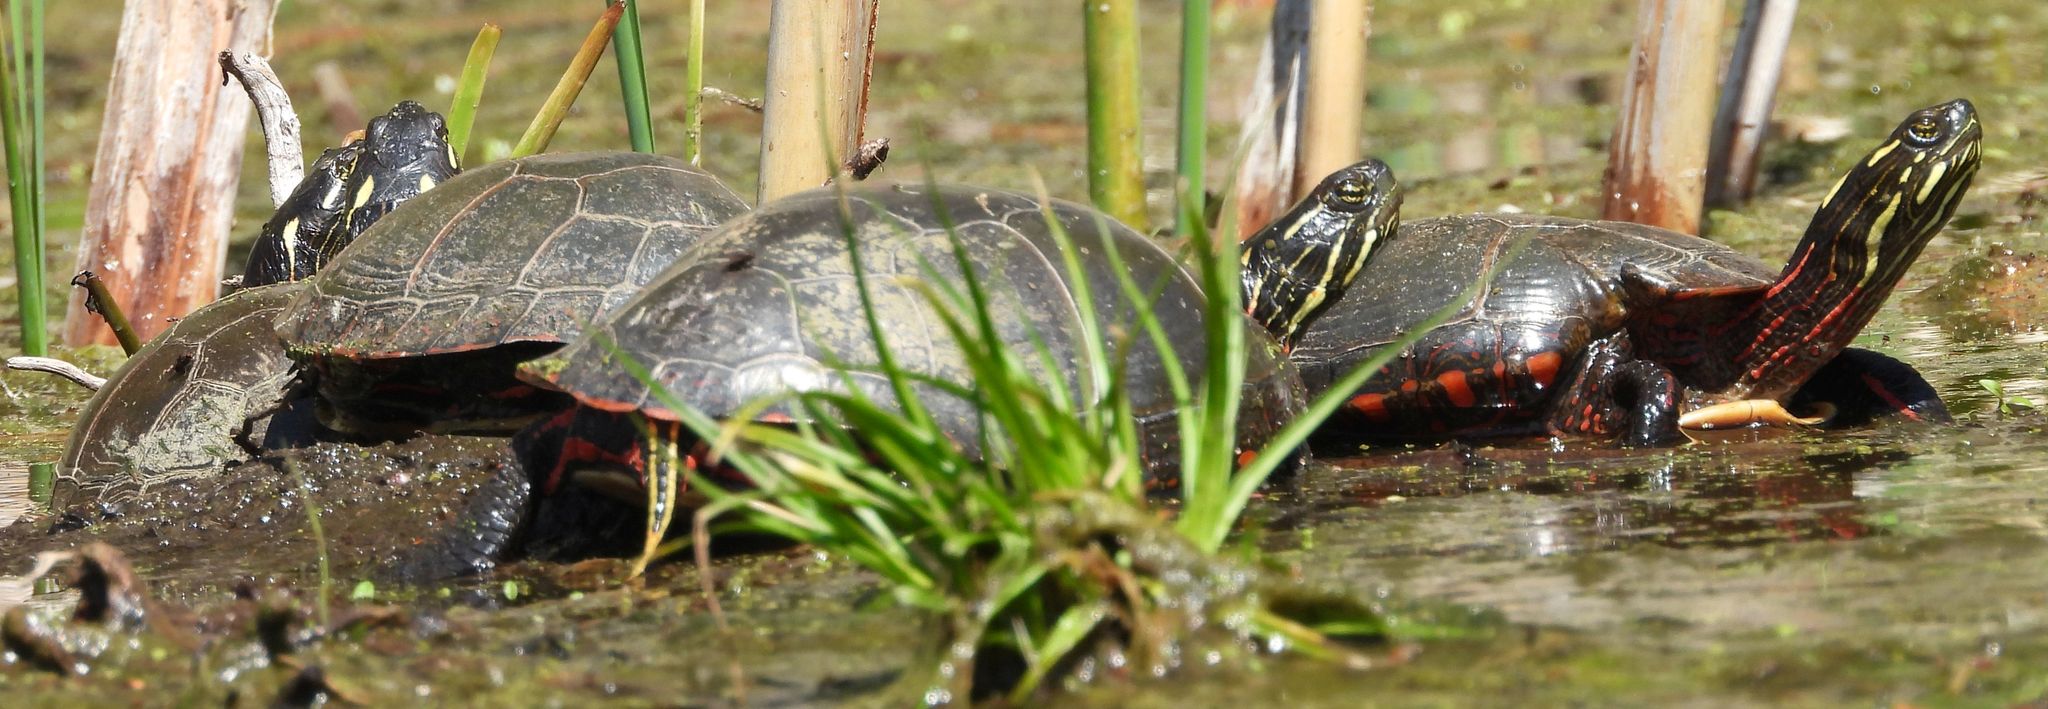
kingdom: Animalia
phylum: Chordata
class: Testudines
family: Emydidae
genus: Chrysemys
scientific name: Chrysemys picta
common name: Painted turtle
